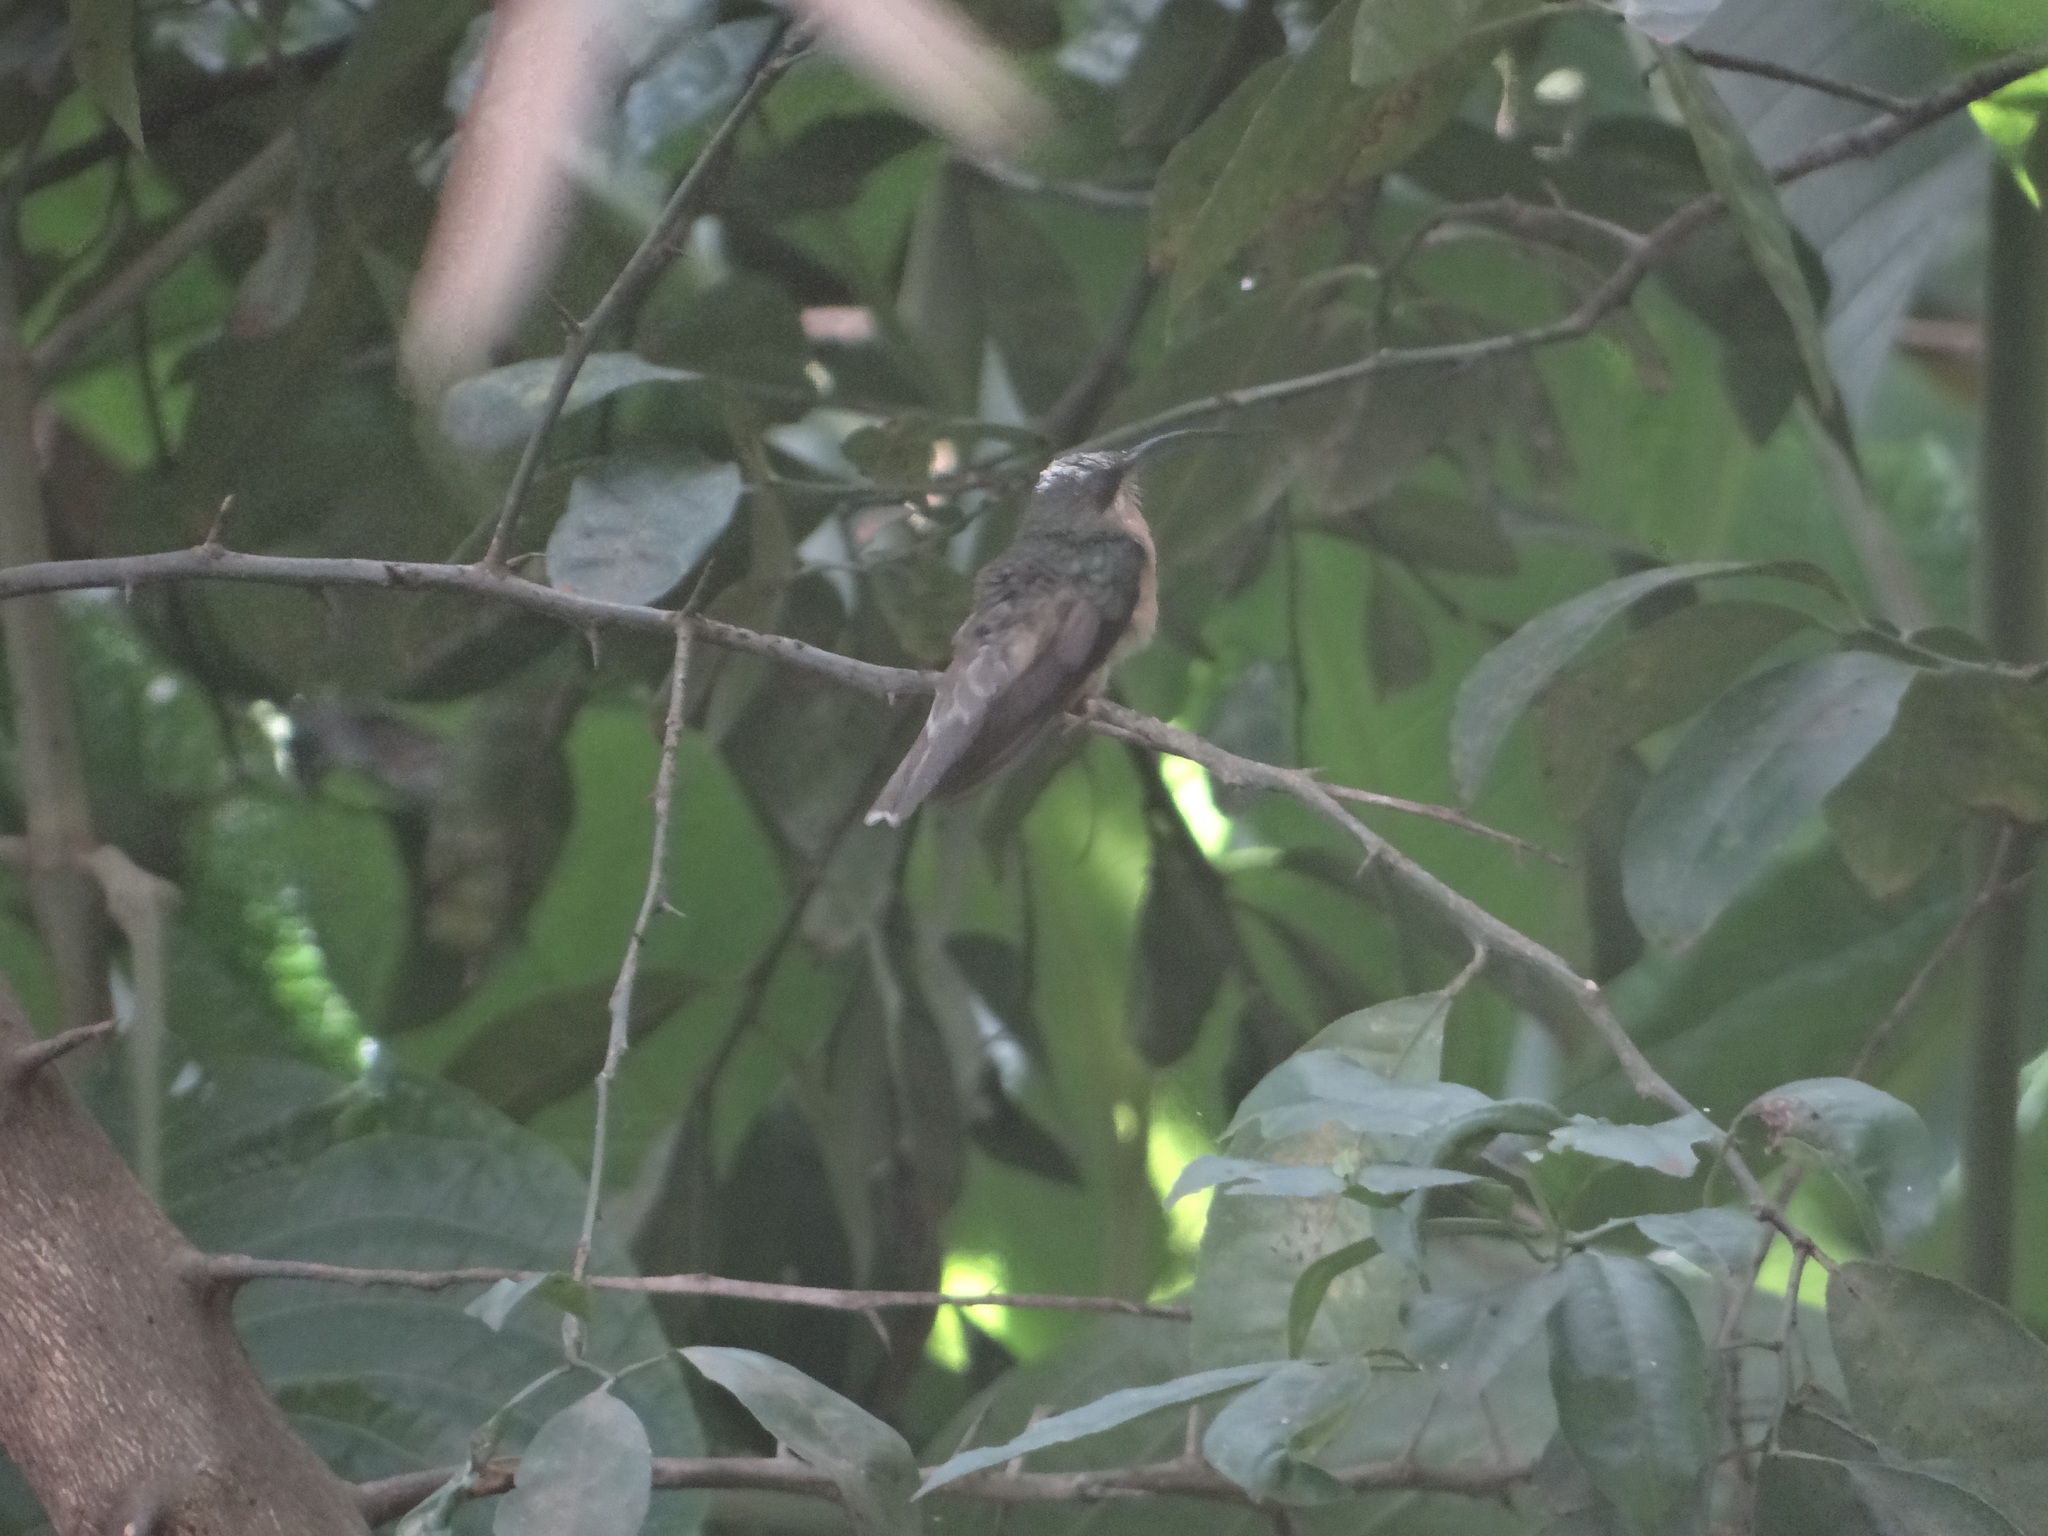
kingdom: Animalia
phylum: Chordata
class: Aves
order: Apodiformes
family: Trochilidae
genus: Glaucis
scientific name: Glaucis hirsutus
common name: Rufous-breasted hermit
